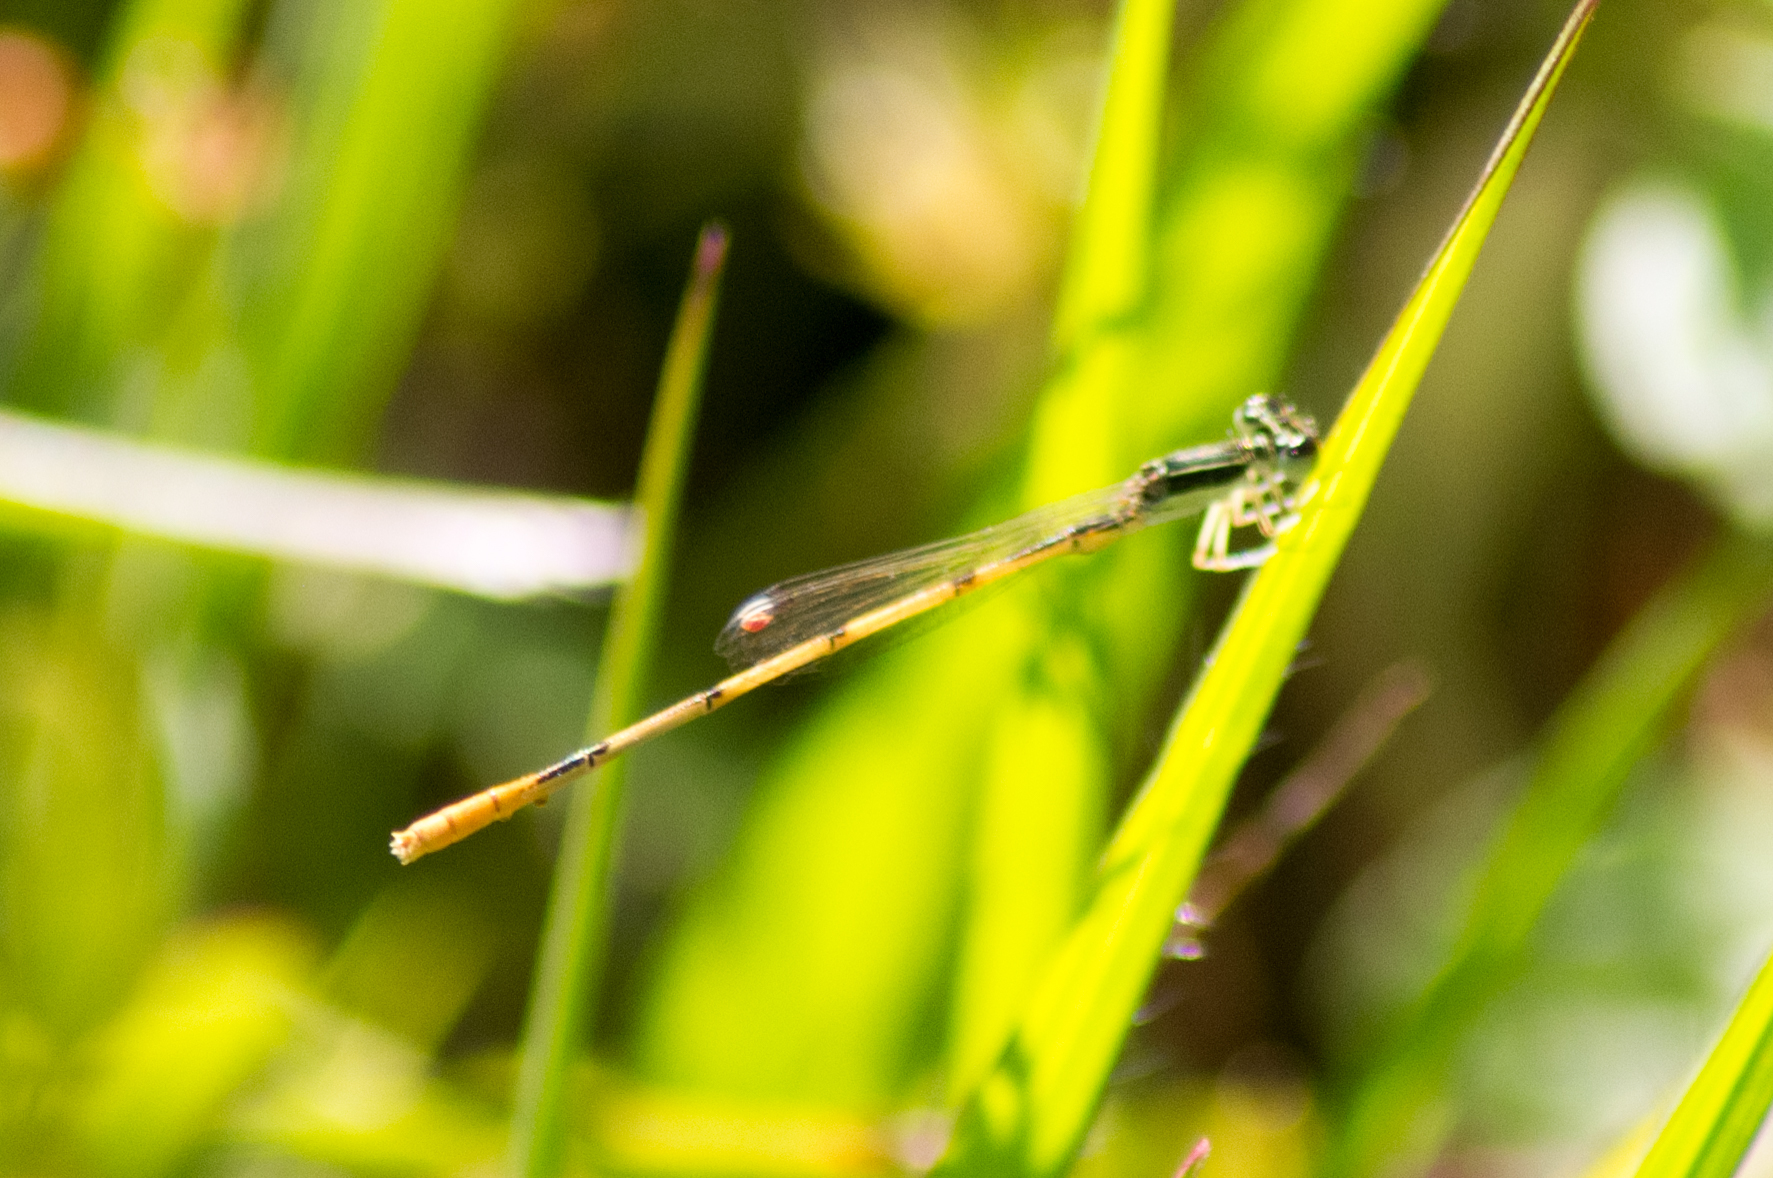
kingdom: Animalia
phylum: Arthropoda
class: Insecta
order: Odonata
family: Coenagrionidae
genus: Ischnura
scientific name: Ischnura hastata
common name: Citrine forktail
